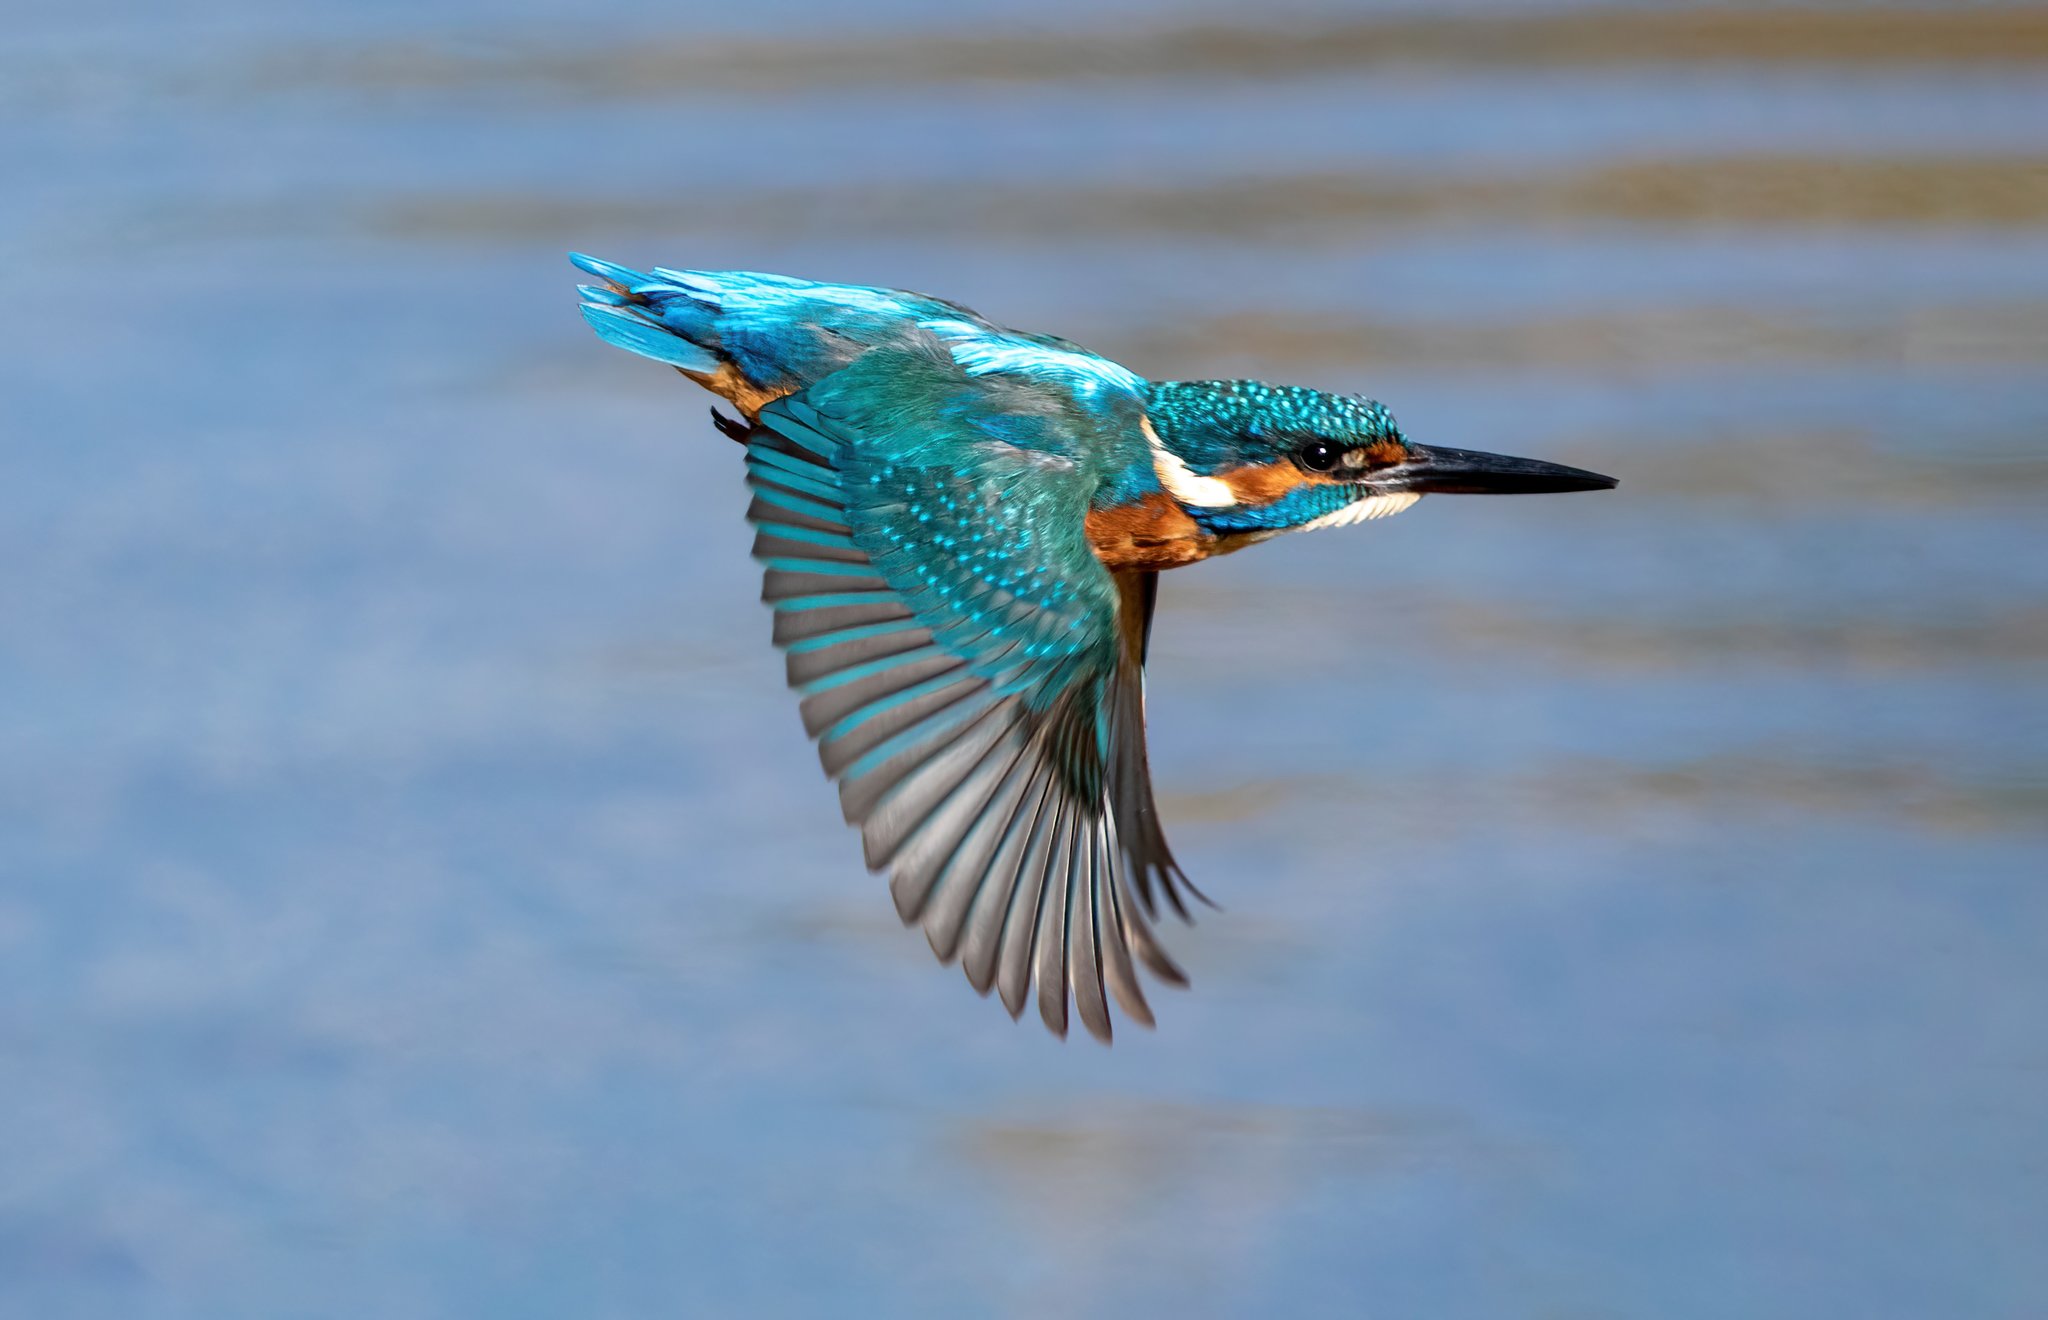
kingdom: Animalia
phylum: Chordata
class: Aves
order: Coraciiformes
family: Alcedinidae
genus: Alcedo
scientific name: Alcedo atthis
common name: Common kingfisher
